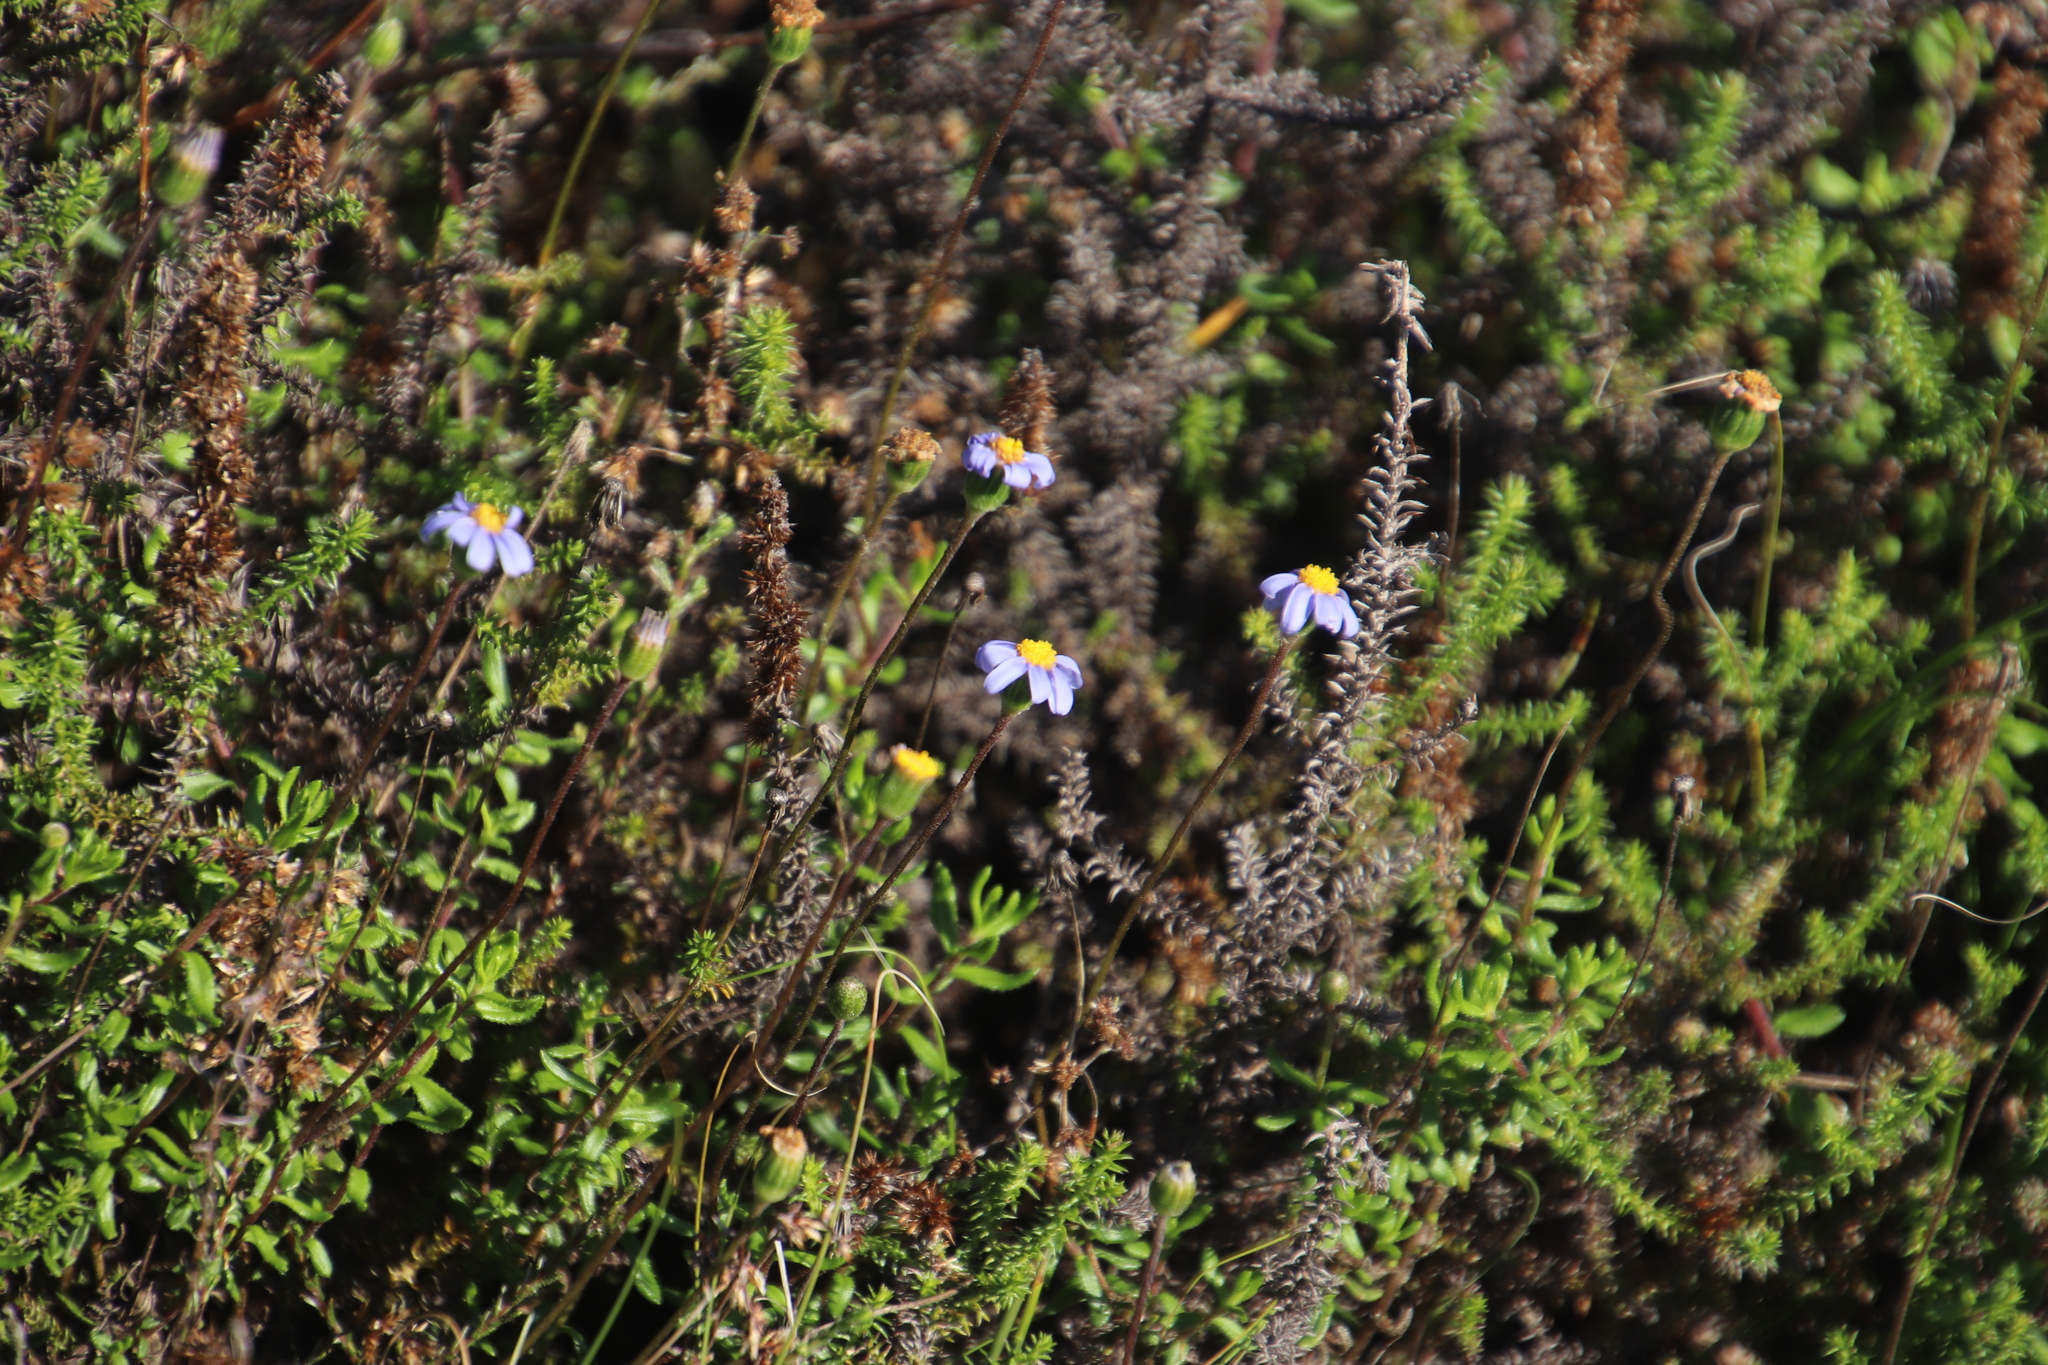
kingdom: Plantae
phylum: Tracheophyta
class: Magnoliopsida
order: Asterales
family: Asteraceae
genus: Felicia
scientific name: Felicia aethiopica
